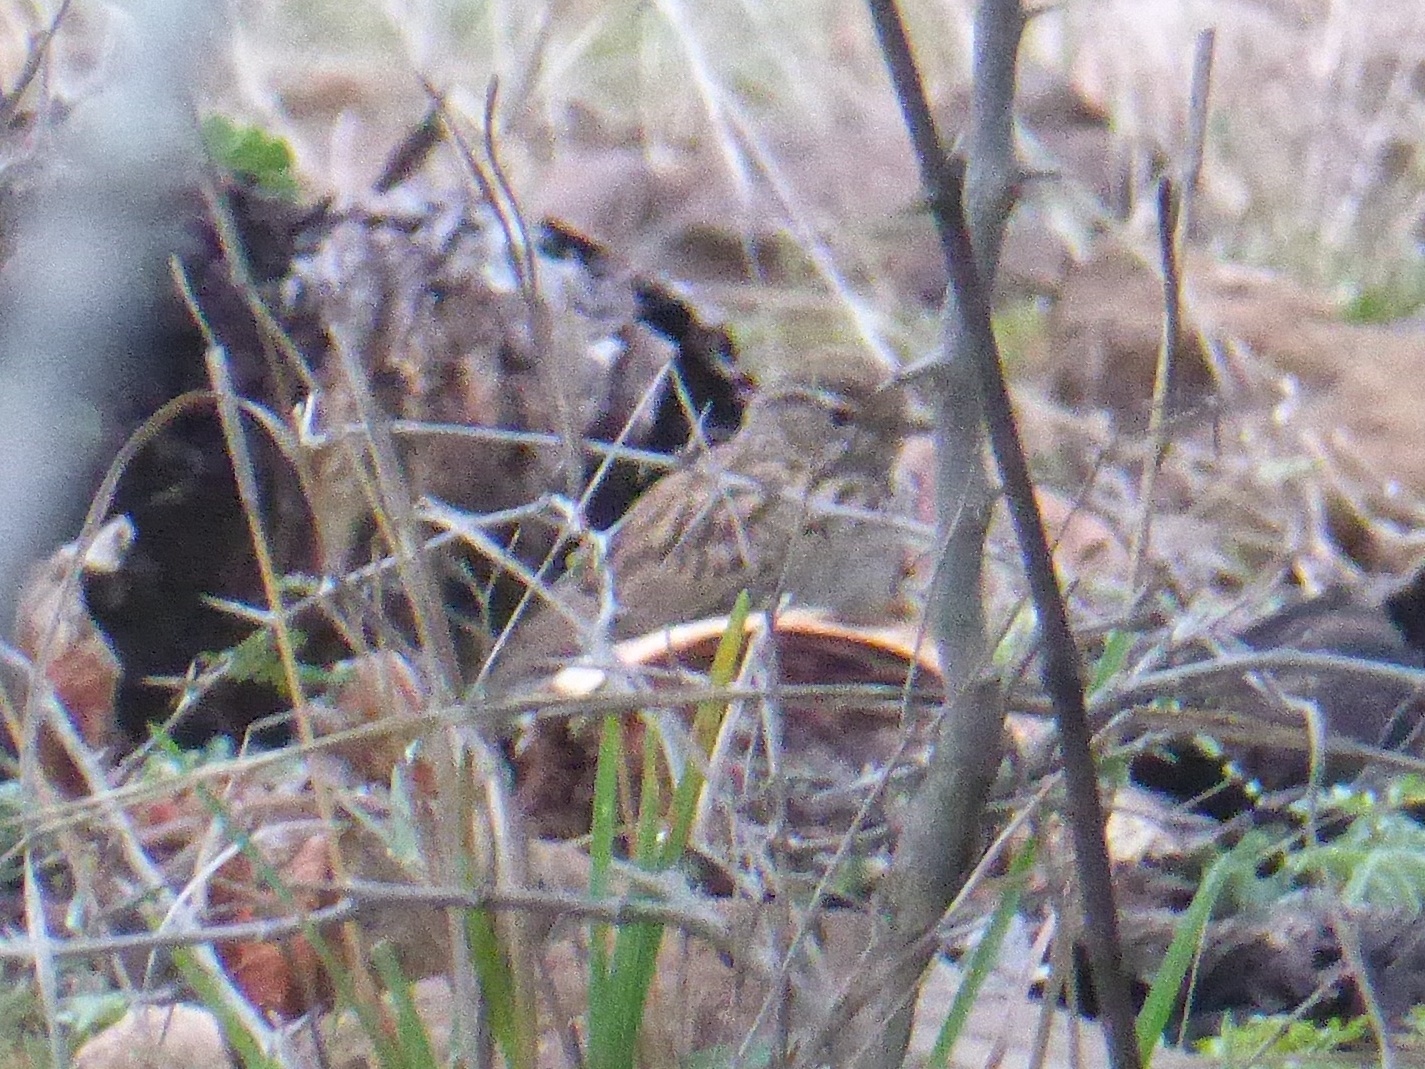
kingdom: Animalia
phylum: Chordata
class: Aves
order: Passeriformes
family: Alaudidae
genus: Calendulauda
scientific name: Calendulauda sabota
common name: Sabota lark
